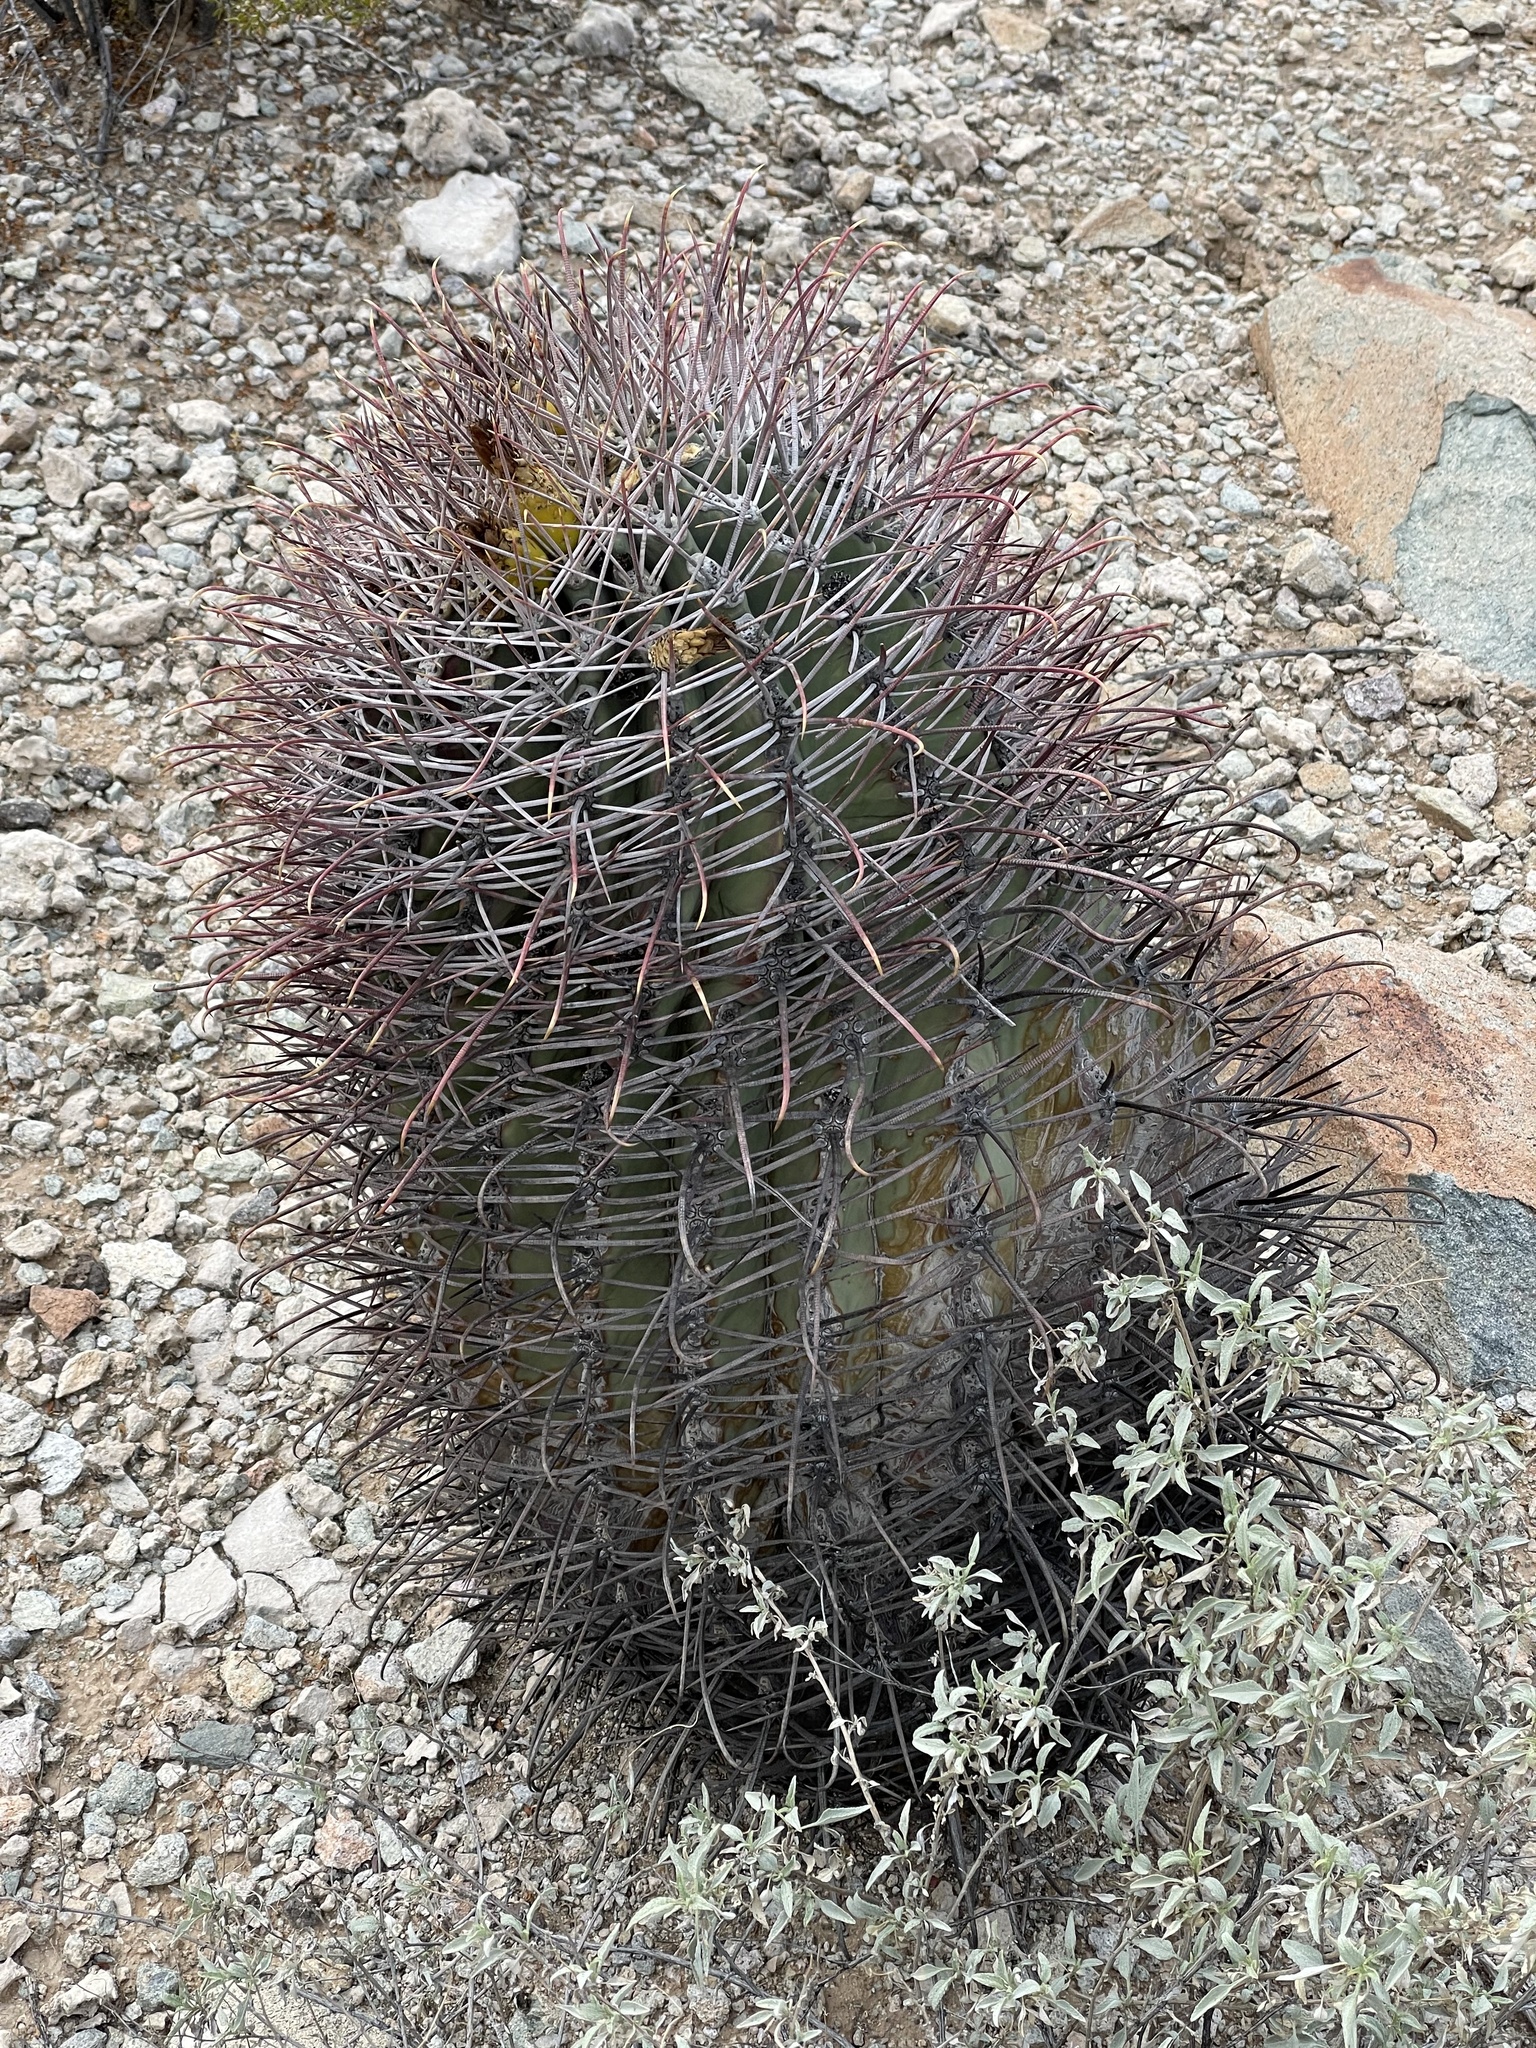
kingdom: Plantae
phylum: Tracheophyta
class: Magnoliopsida
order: Caryophyllales
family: Cactaceae
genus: Ferocactus
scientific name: Ferocactus emoryi
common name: Emory's barrel cactus
